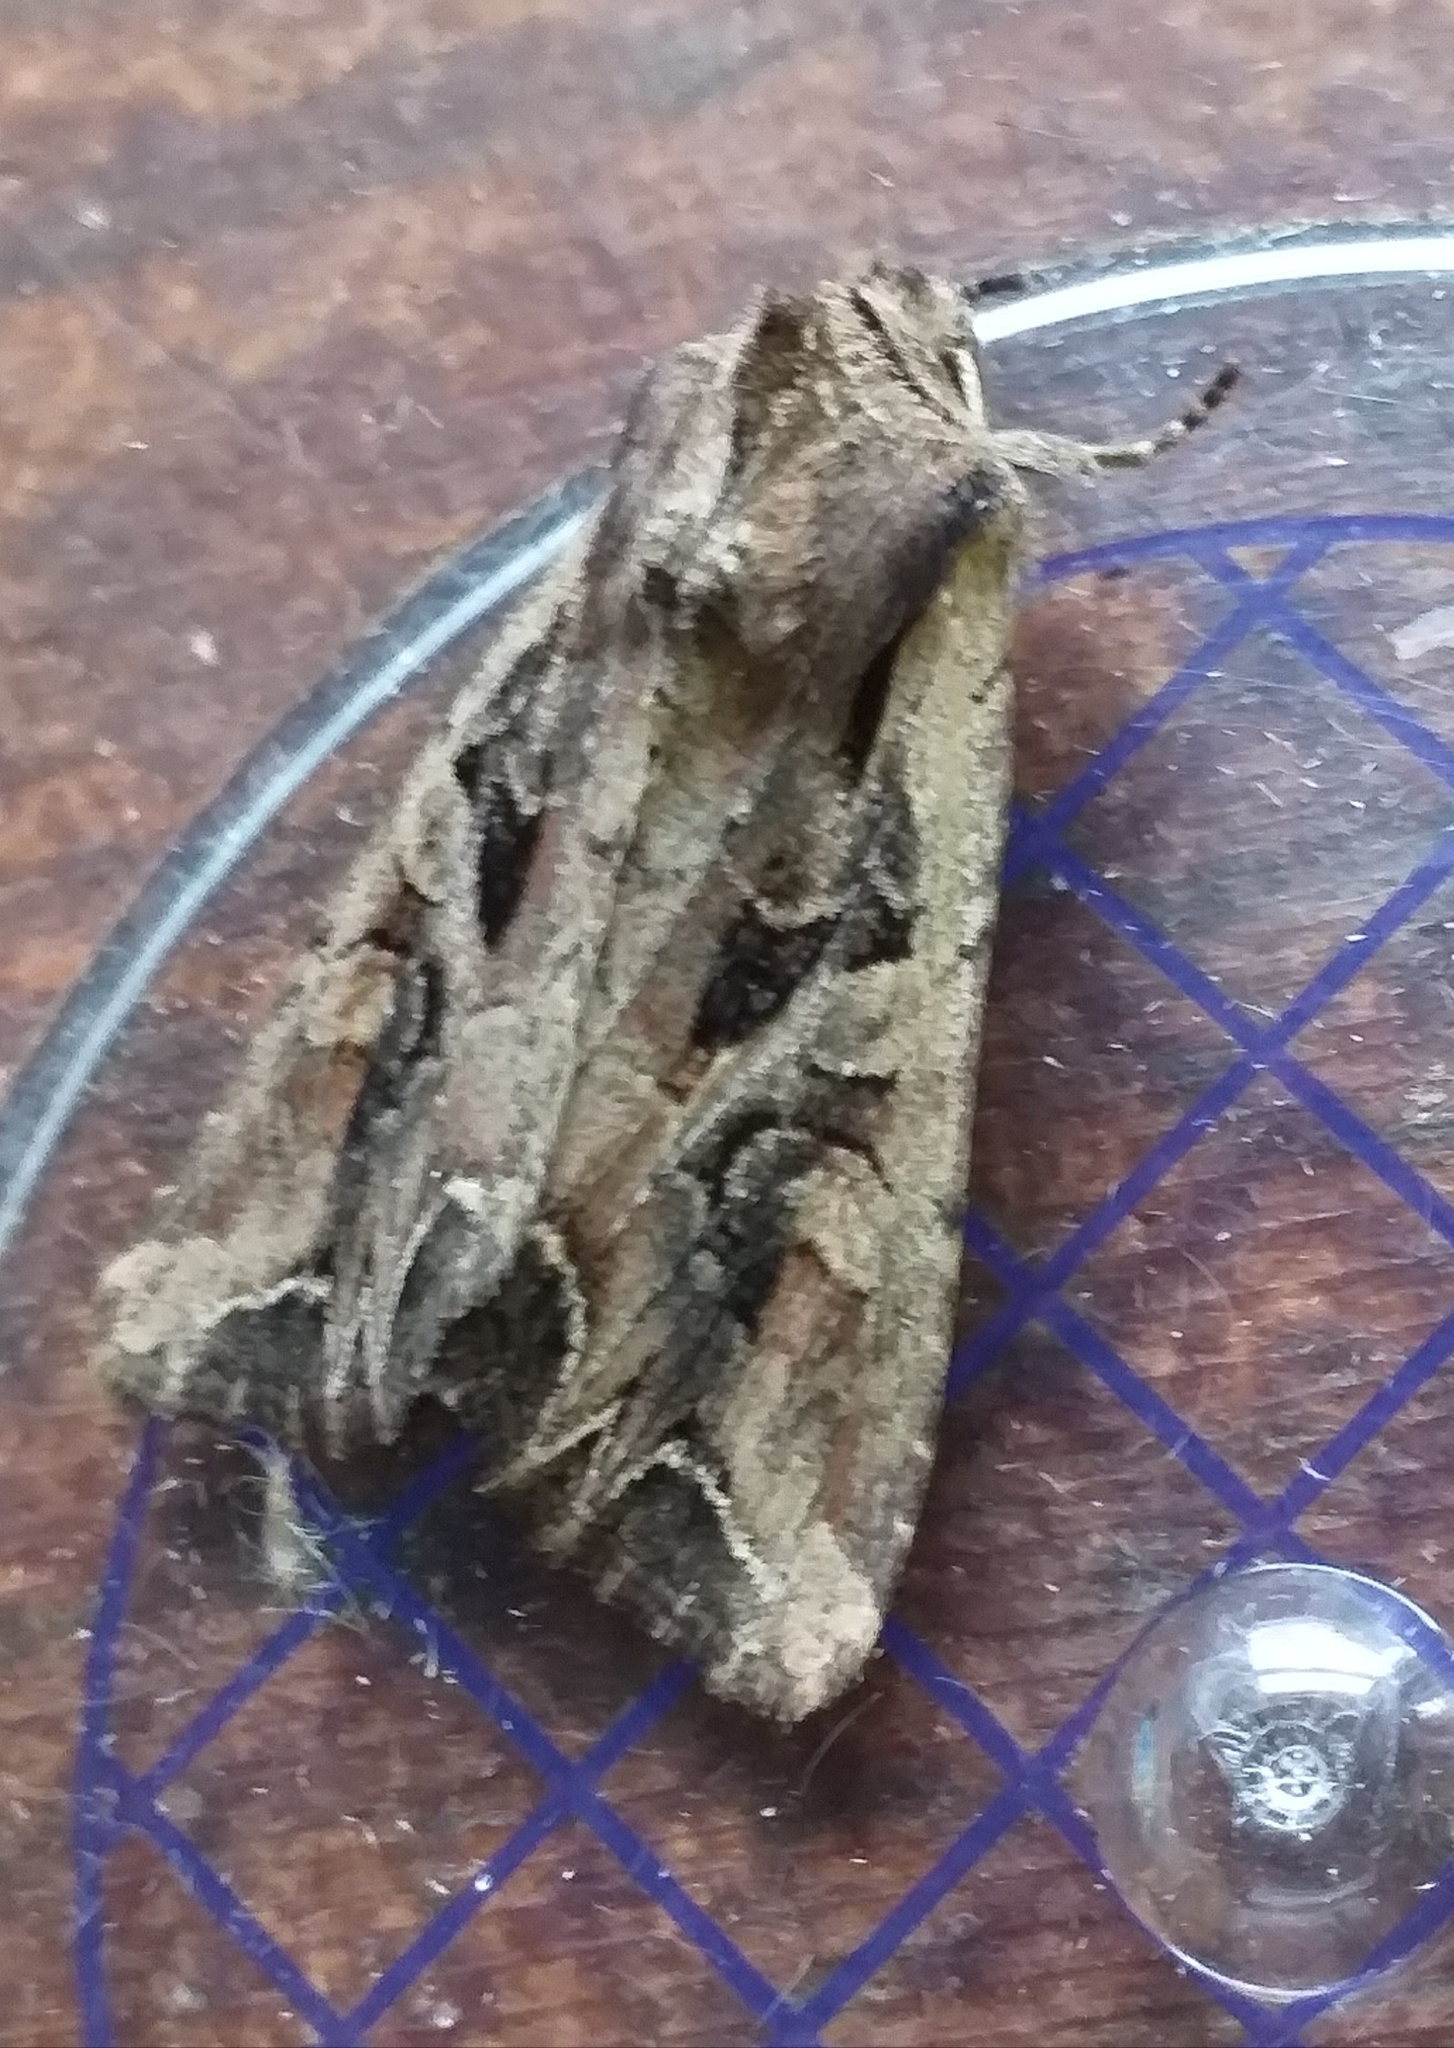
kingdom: Animalia
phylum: Arthropoda
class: Insecta
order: Lepidoptera
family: Noctuidae
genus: Lacanobia
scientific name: Lacanobia suasa
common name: Dog's tooth
